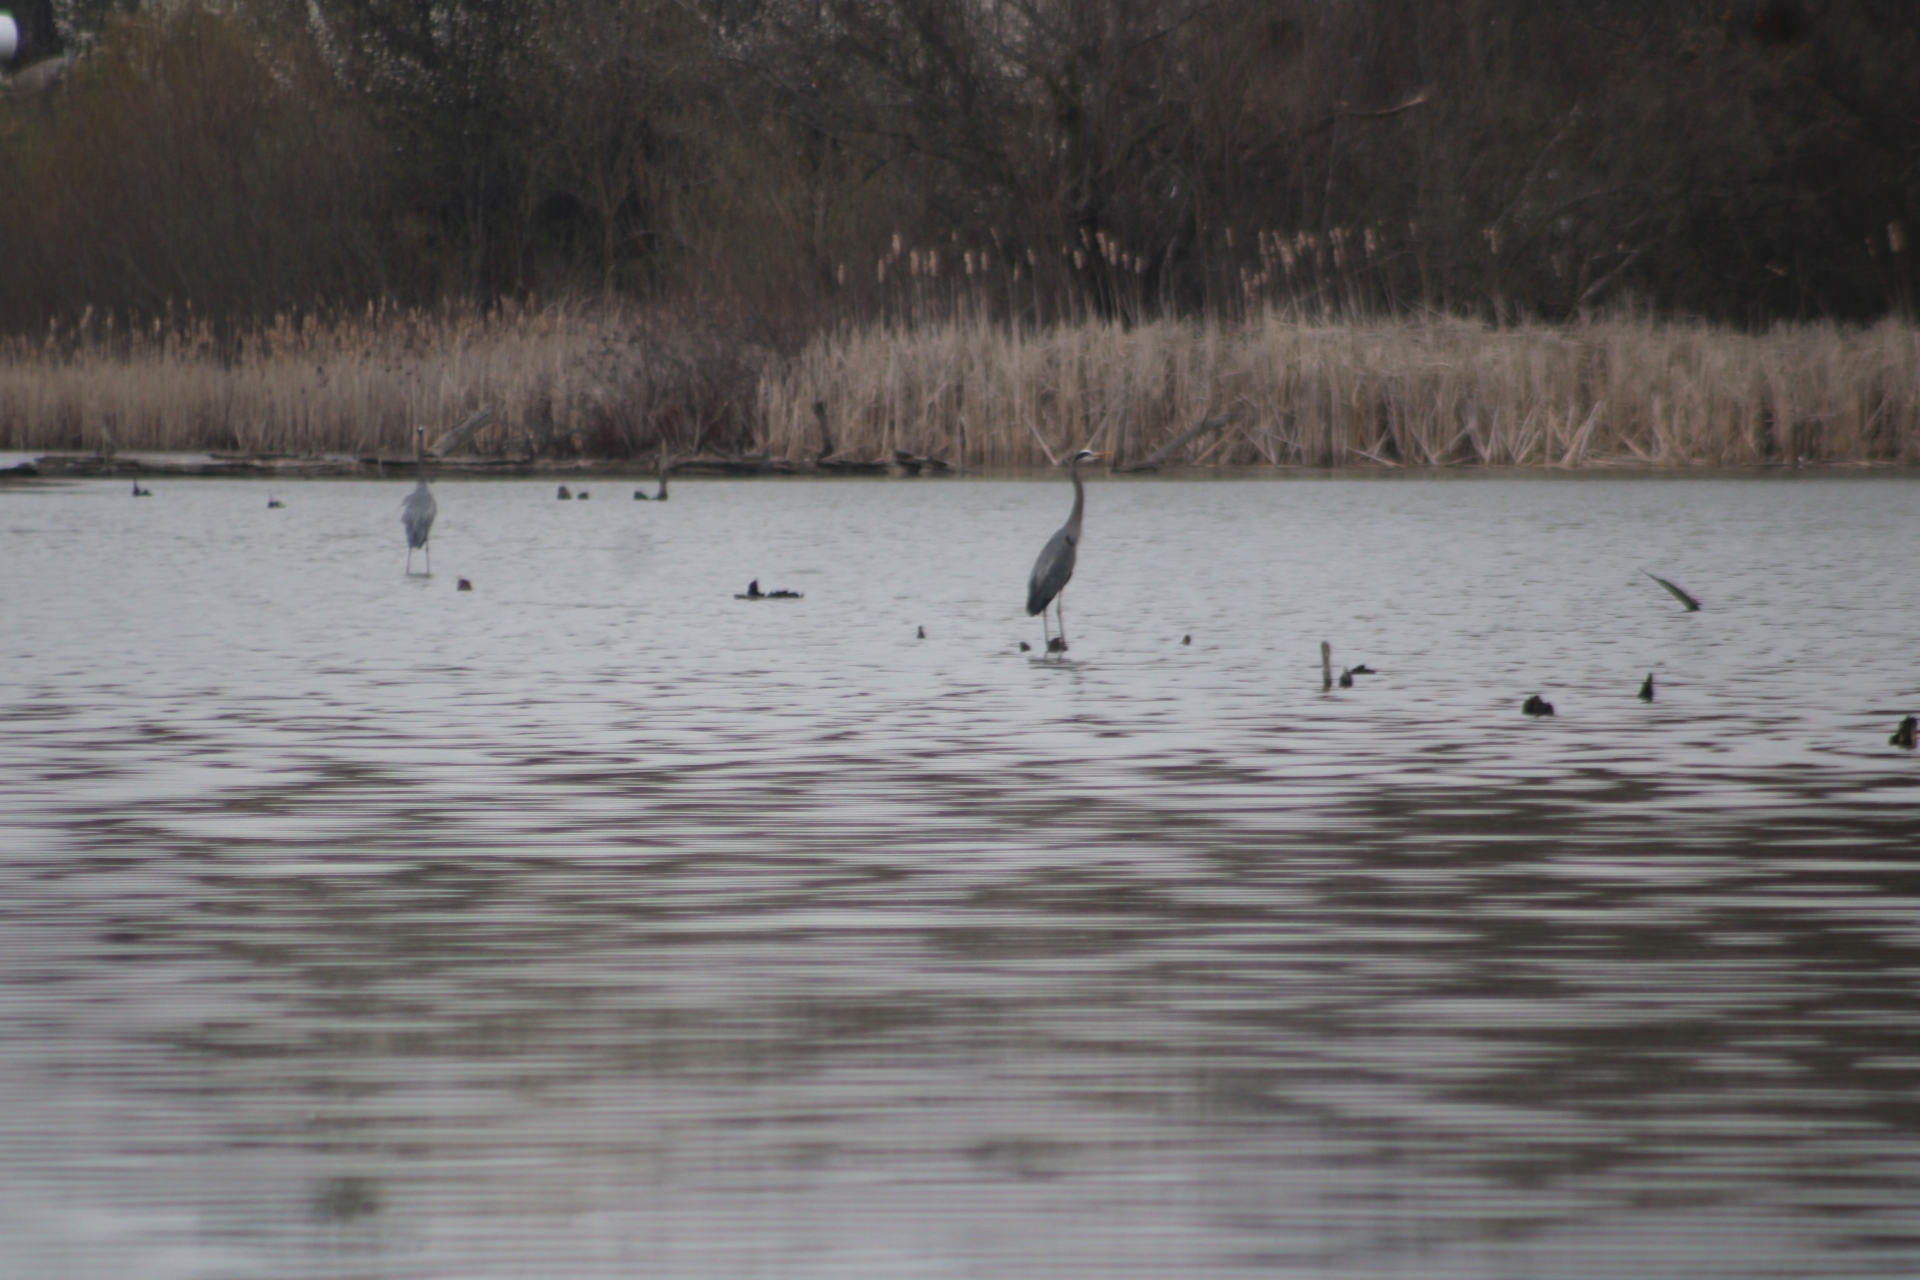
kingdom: Animalia
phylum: Chordata
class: Aves
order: Pelecaniformes
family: Ardeidae
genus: Ardea
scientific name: Ardea herodias
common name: Great blue heron
